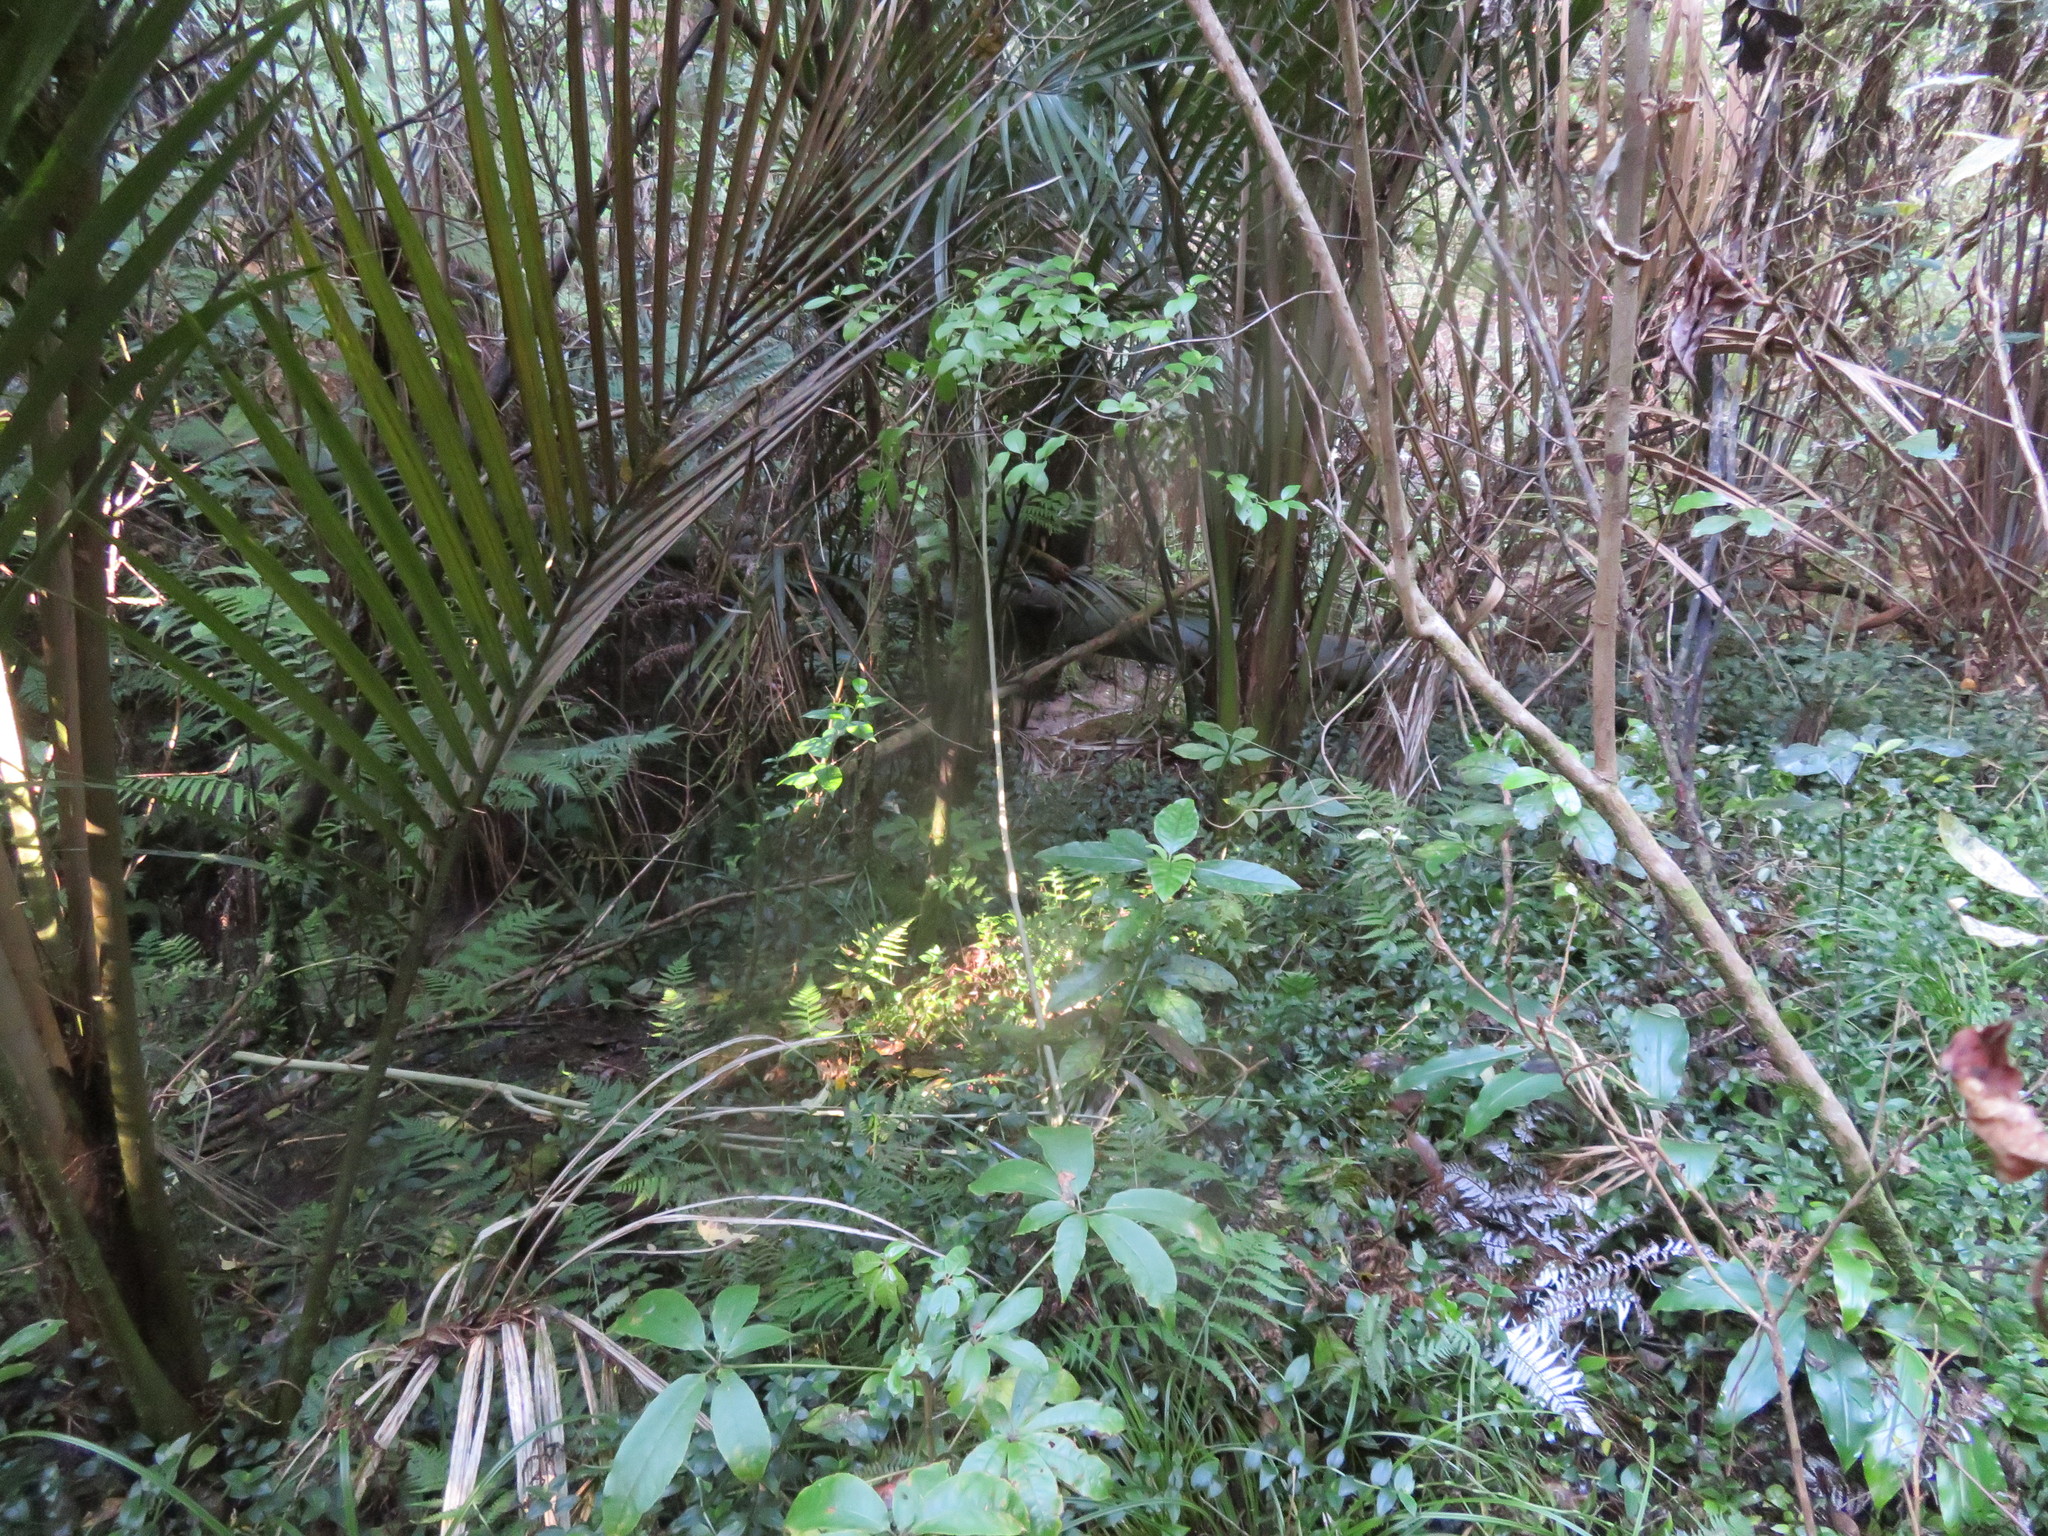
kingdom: Plantae
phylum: Tracheophyta
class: Magnoliopsida
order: Apiales
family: Araliaceae
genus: Schefflera
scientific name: Schefflera digitata
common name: Pate
